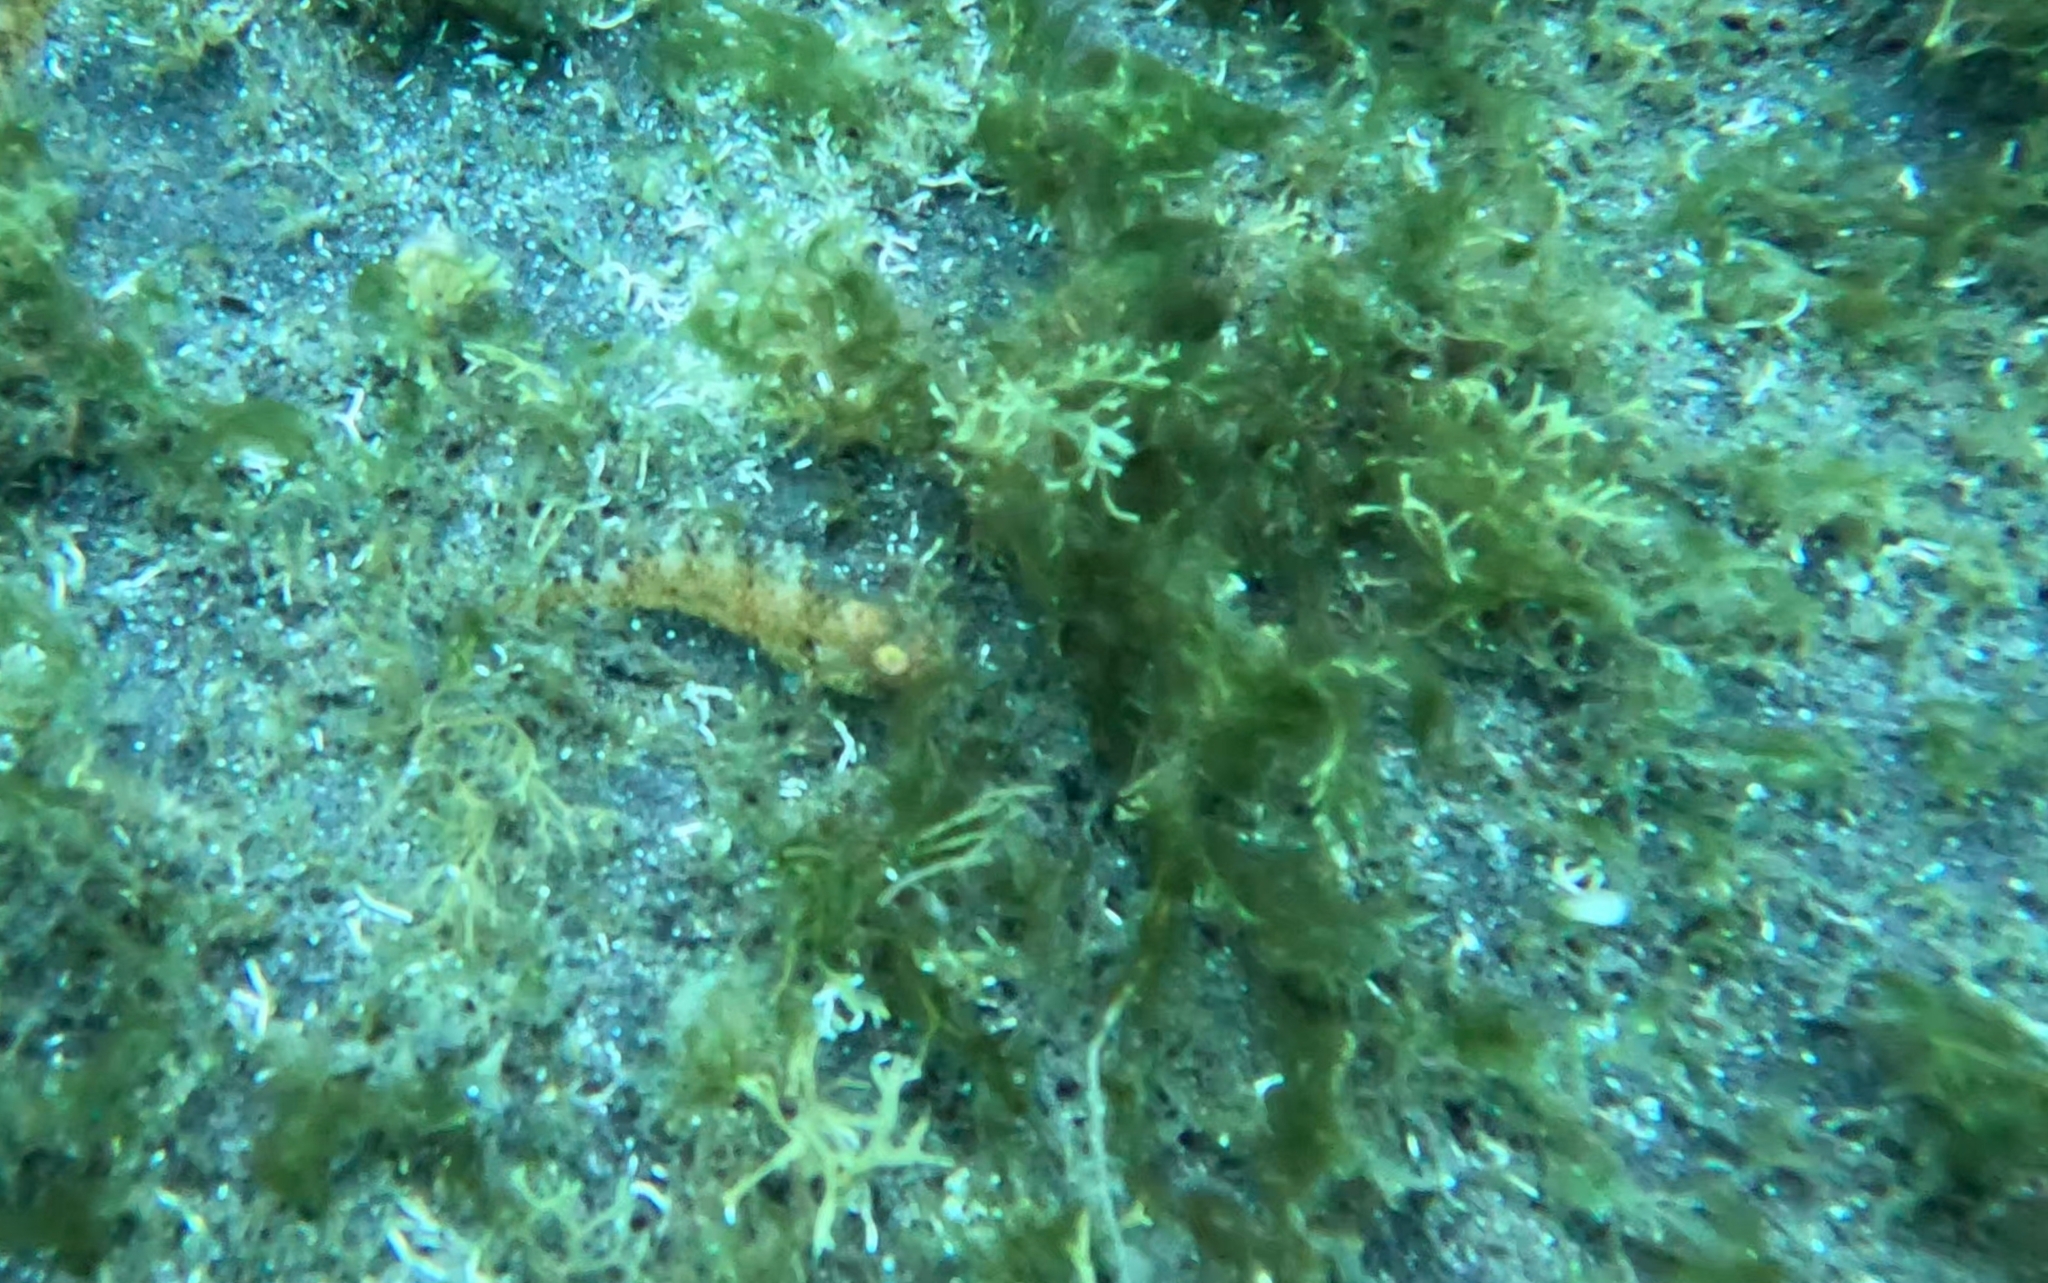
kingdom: Animalia
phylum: Chordata
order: Perciformes
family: Scaridae
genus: Sparisoma
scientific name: Sparisoma cretense
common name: Parrotfish
